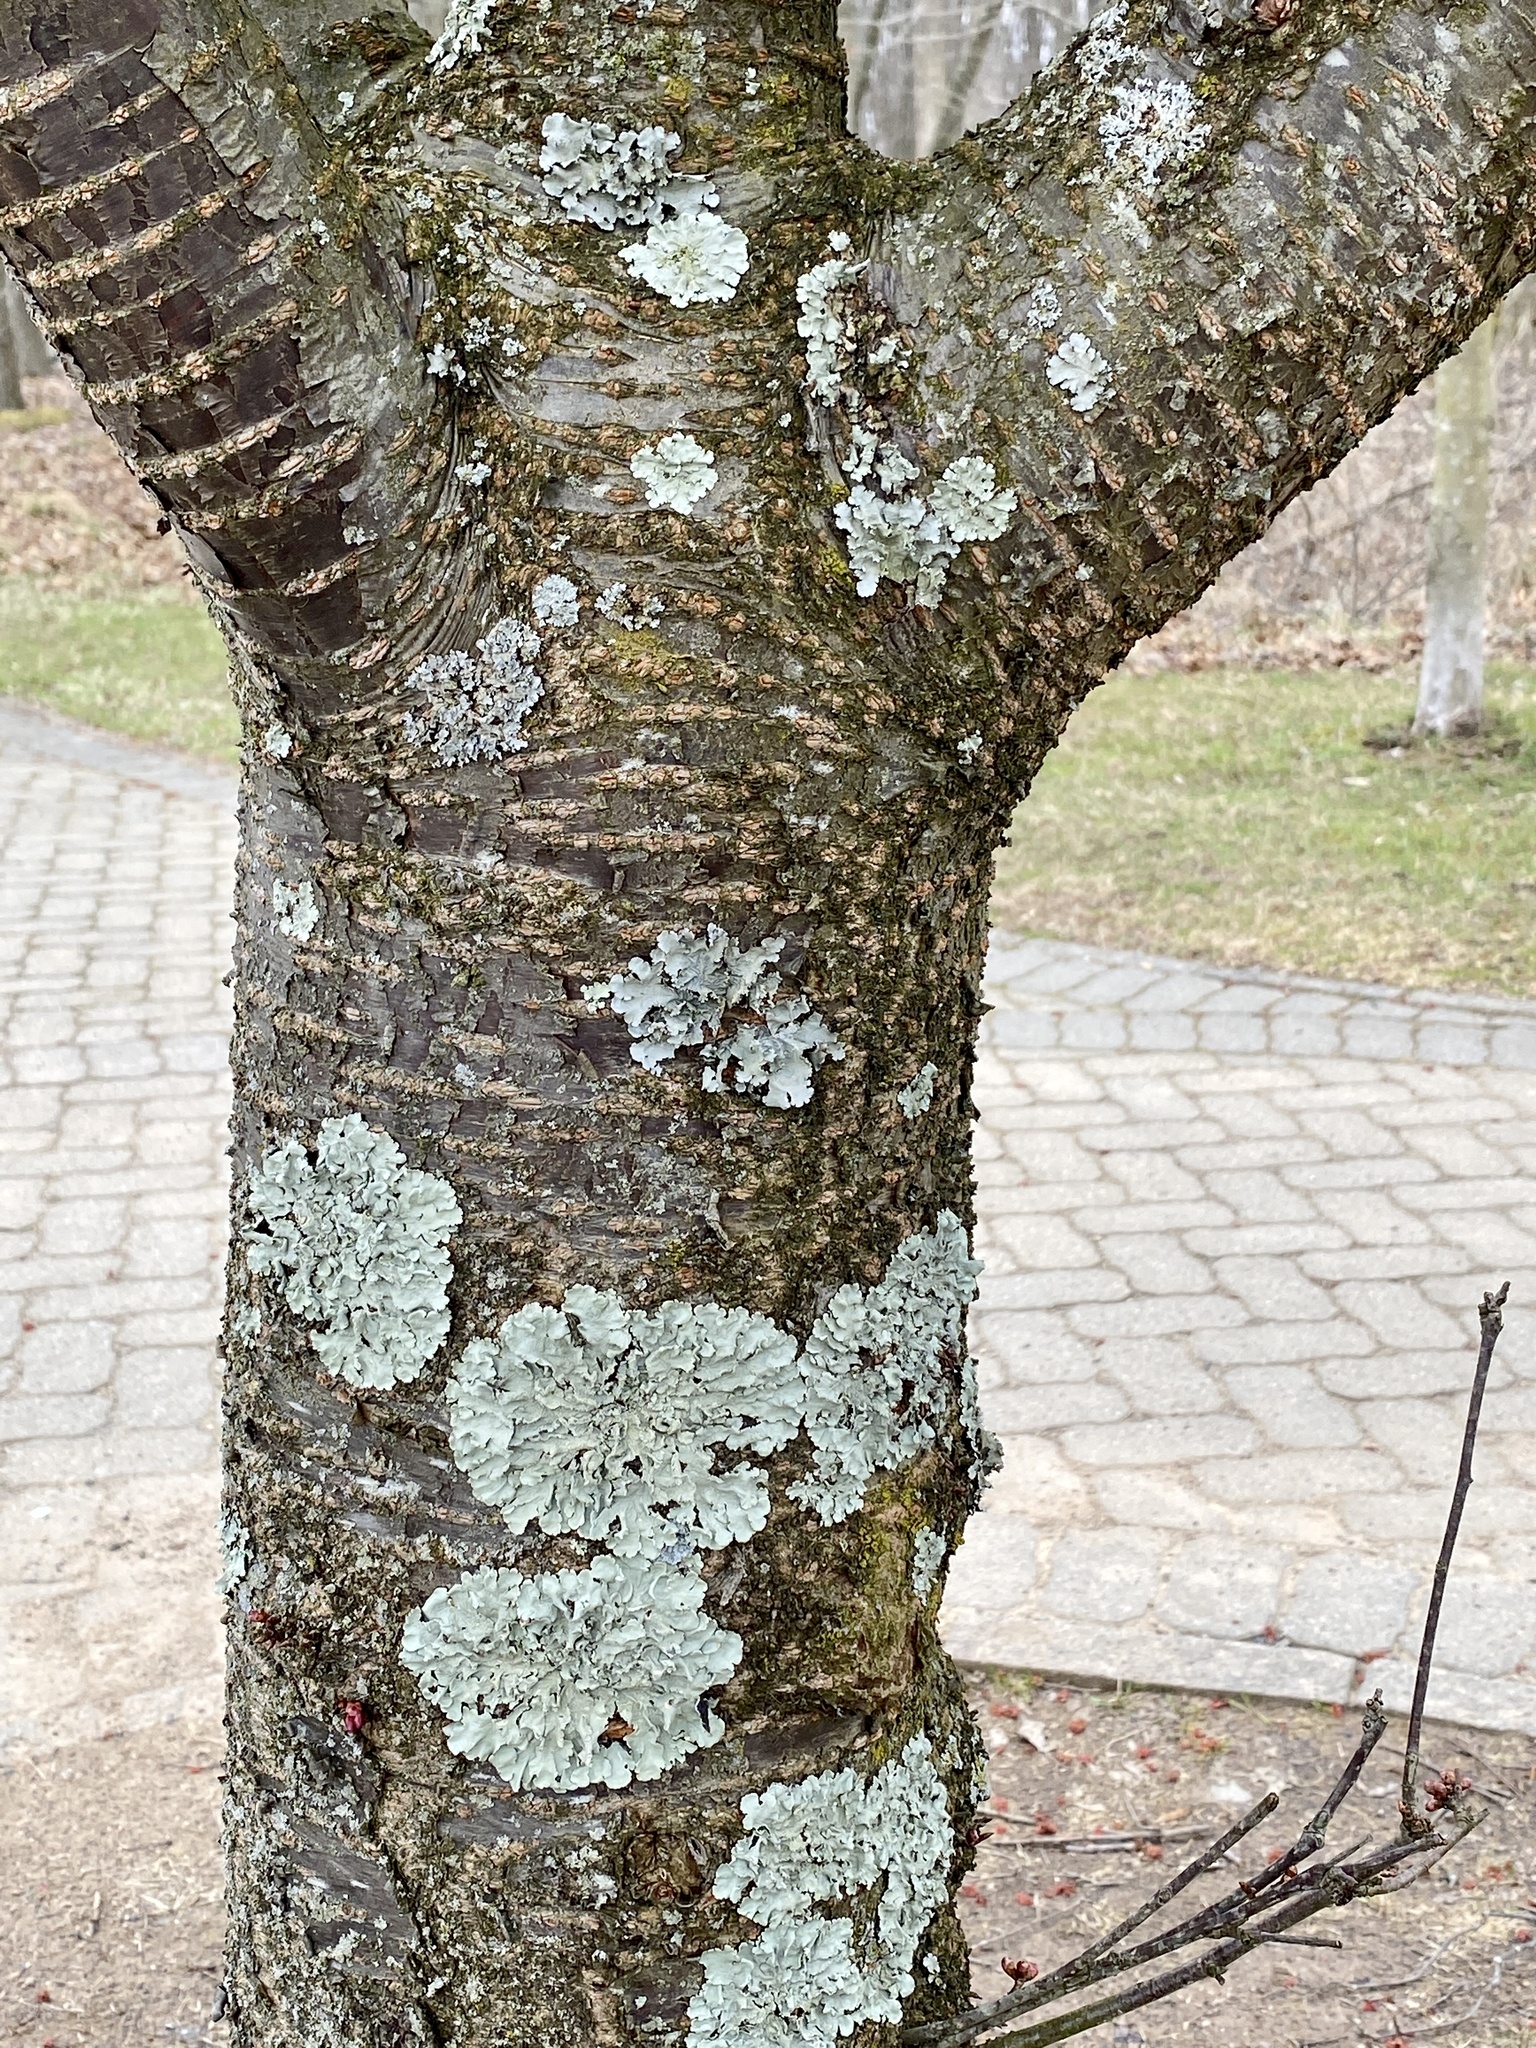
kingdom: Fungi
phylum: Ascomycota
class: Lecanoromycetes
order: Lecanorales
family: Parmeliaceae
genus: Flavoparmelia
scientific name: Flavoparmelia caperata
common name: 40-mile per hour lichen
